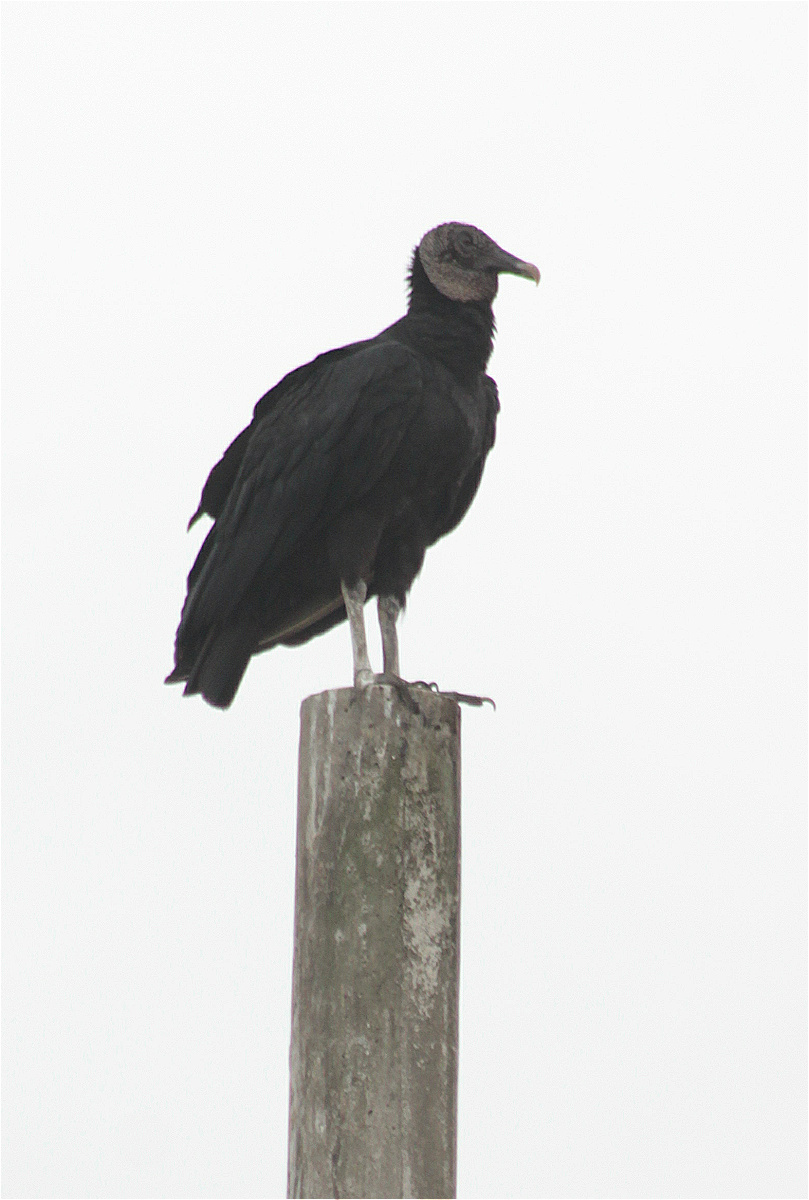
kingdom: Animalia
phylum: Chordata
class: Aves
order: Accipitriformes
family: Cathartidae
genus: Coragyps
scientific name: Coragyps atratus
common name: Black vulture
